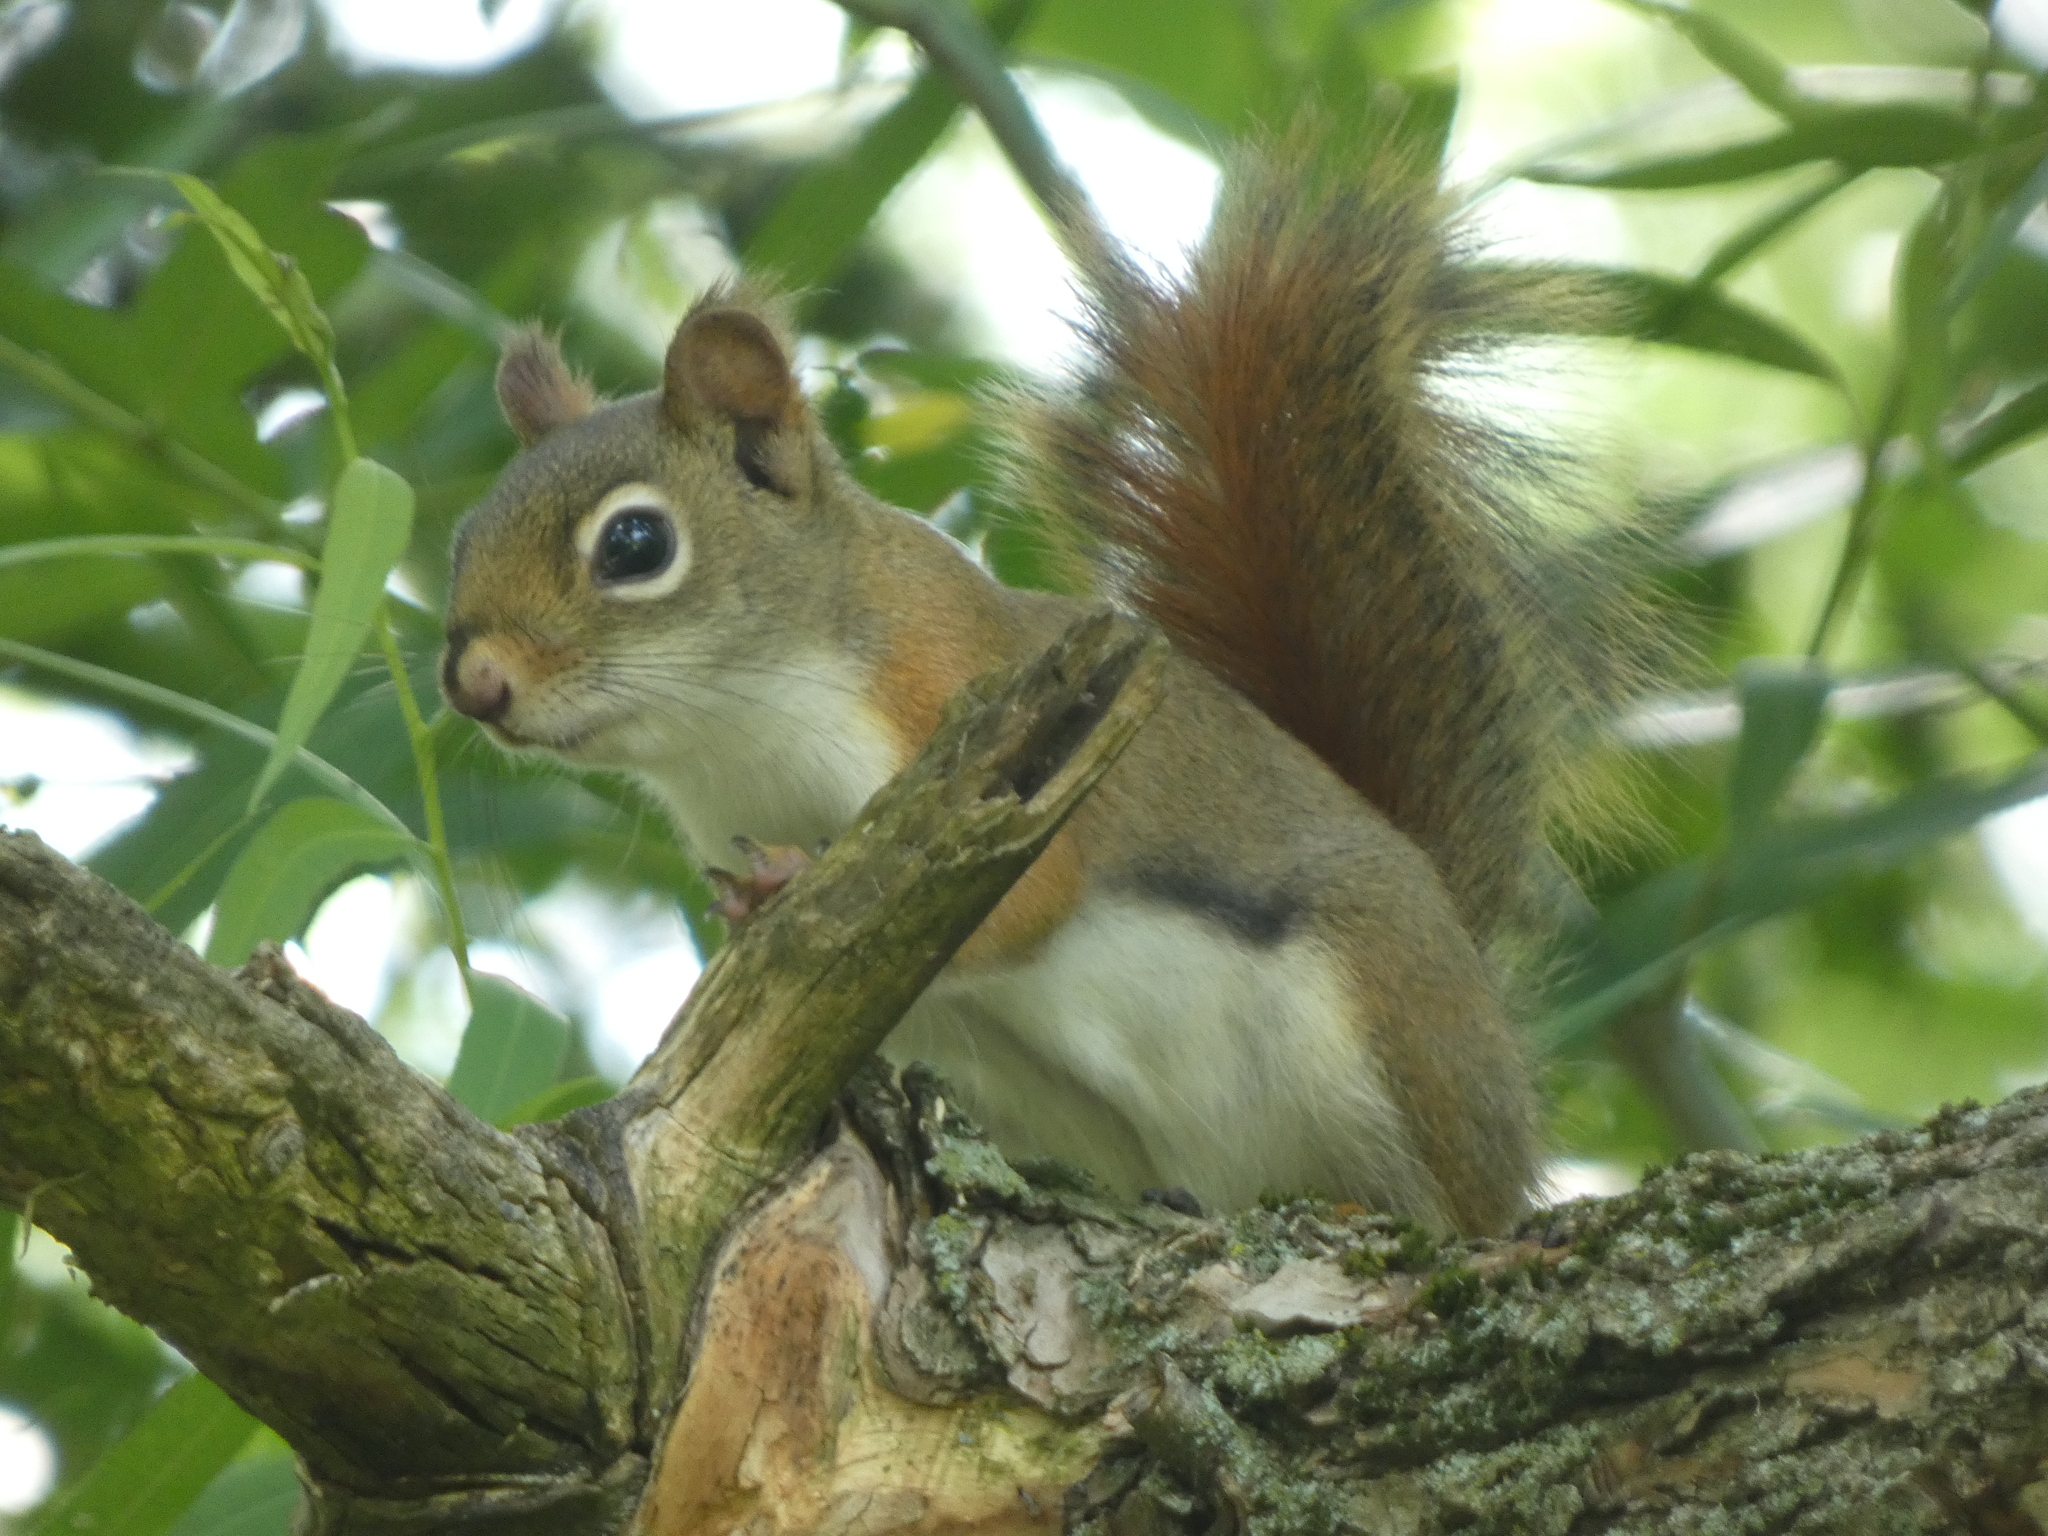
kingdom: Animalia
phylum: Chordata
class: Mammalia
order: Rodentia
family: Sciuridae
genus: Tamiasciurus
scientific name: Tamiasciurus hudsonicus
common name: Red squirrel
